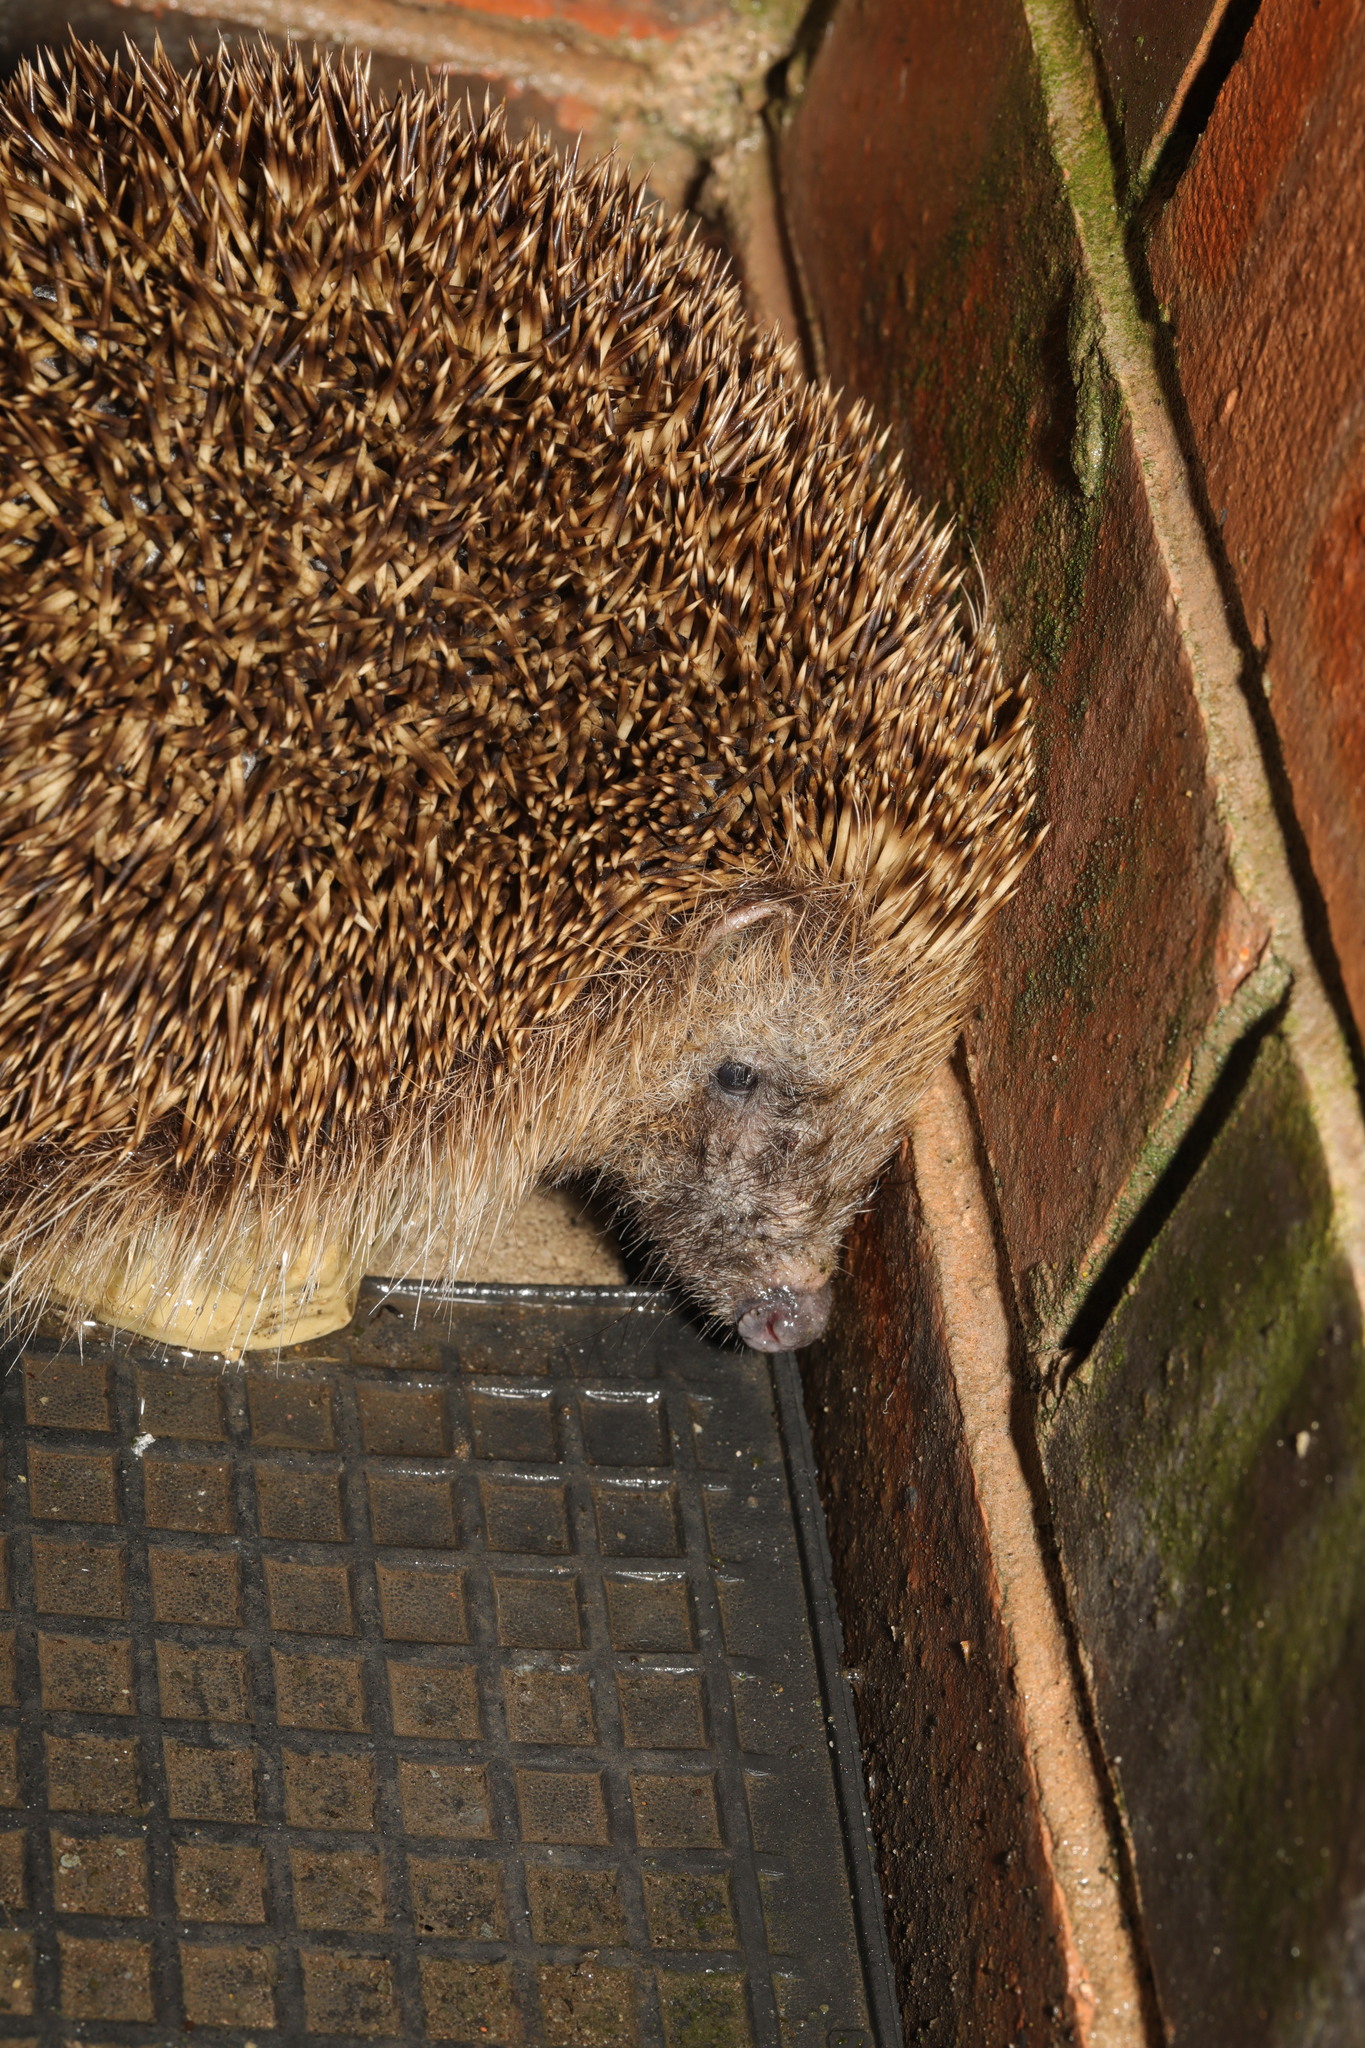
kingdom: Animalia
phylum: Chordata
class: Mammalia
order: Erinaceomorpha
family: Erinaceidae
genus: Erinaceus
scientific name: Erinaceus europaeus
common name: West european hedgehog
